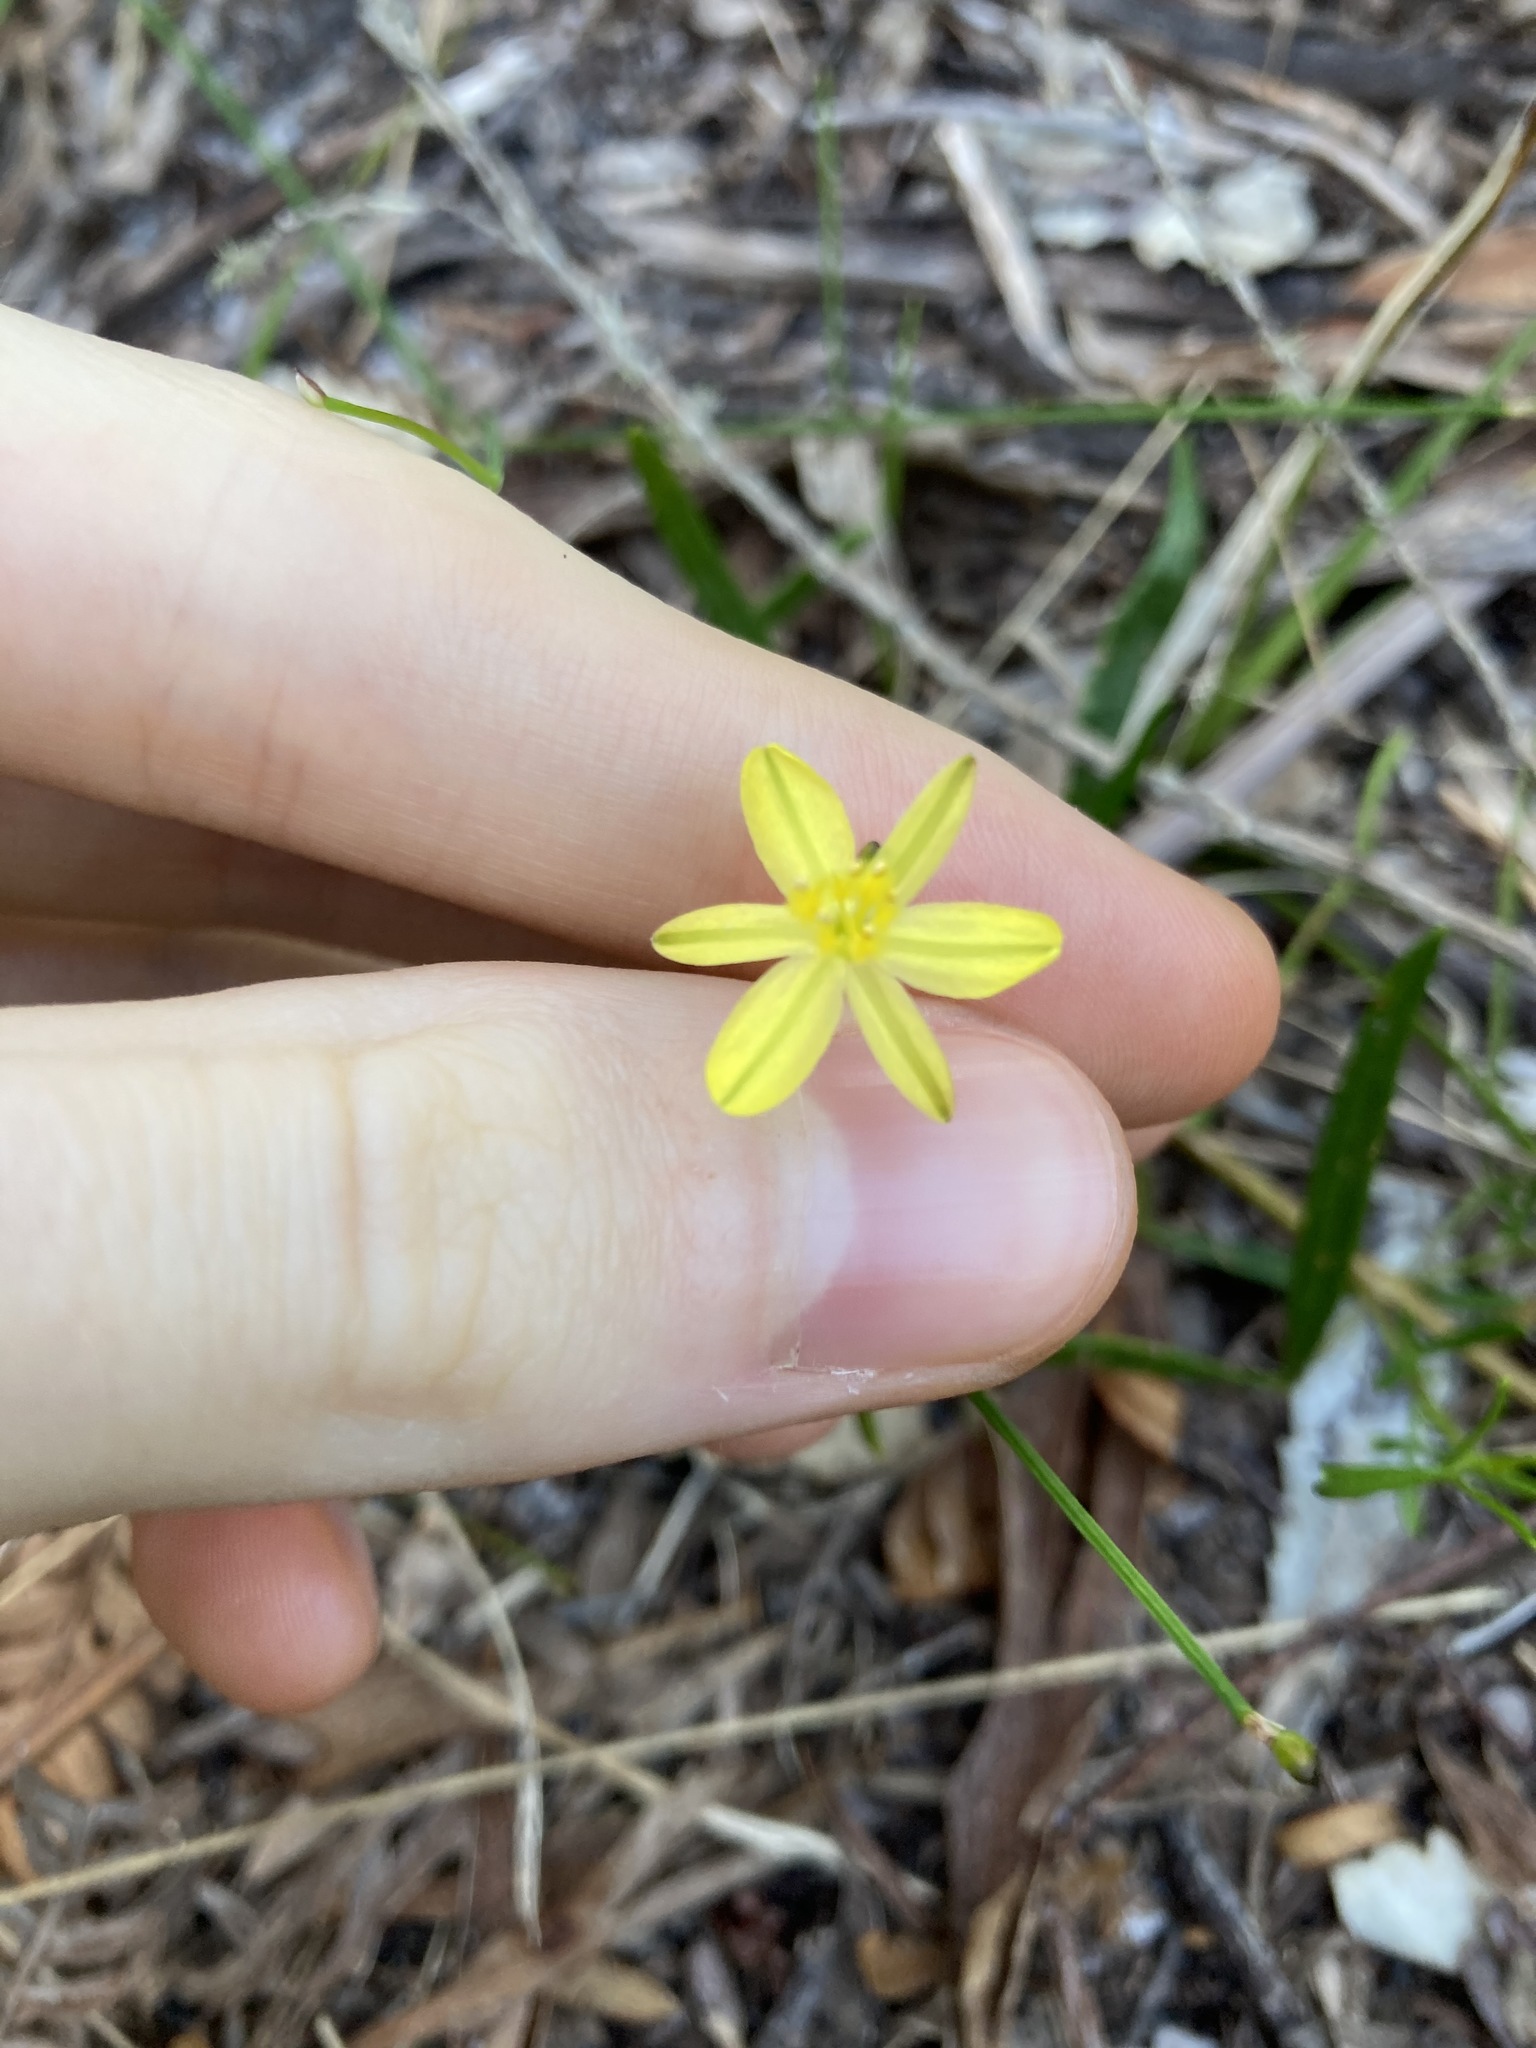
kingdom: Plantae
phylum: Tracheophyta
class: Liliopsida
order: Asparagales
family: Asphodelaceae
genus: Tricoryne
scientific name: Tricoryne elatior
